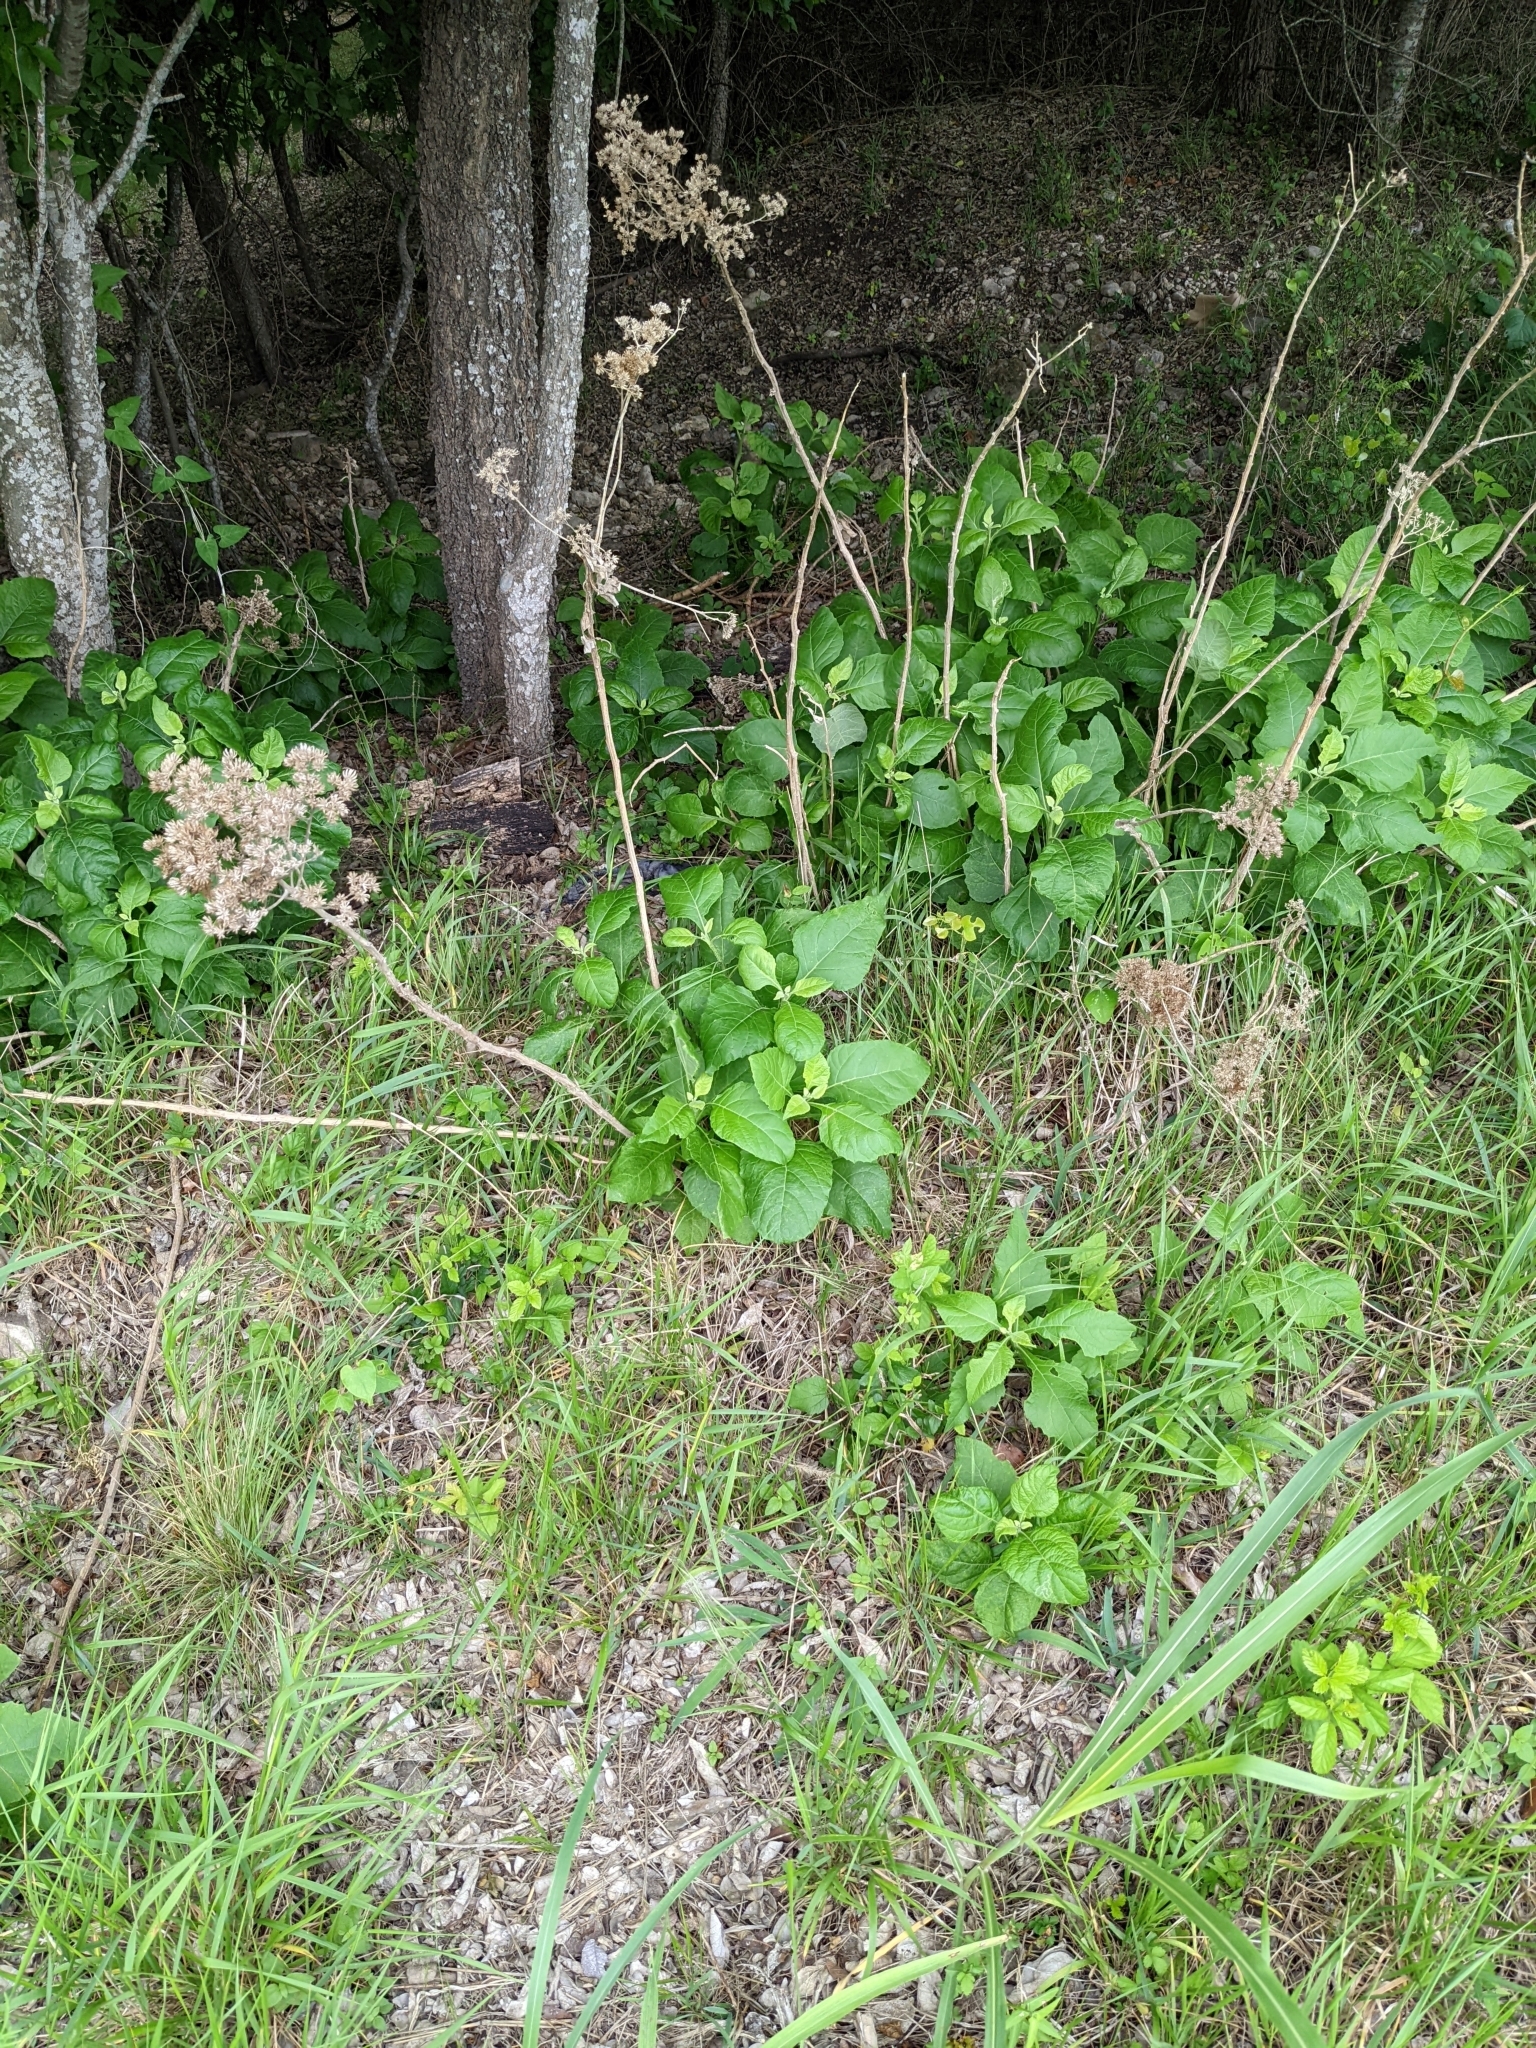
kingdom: Plantae
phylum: Tracheophyta
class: Magnoliopsida
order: Asterales
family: Asteraceae
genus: Verbesina
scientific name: Verbesina virginica
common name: Frostweed
